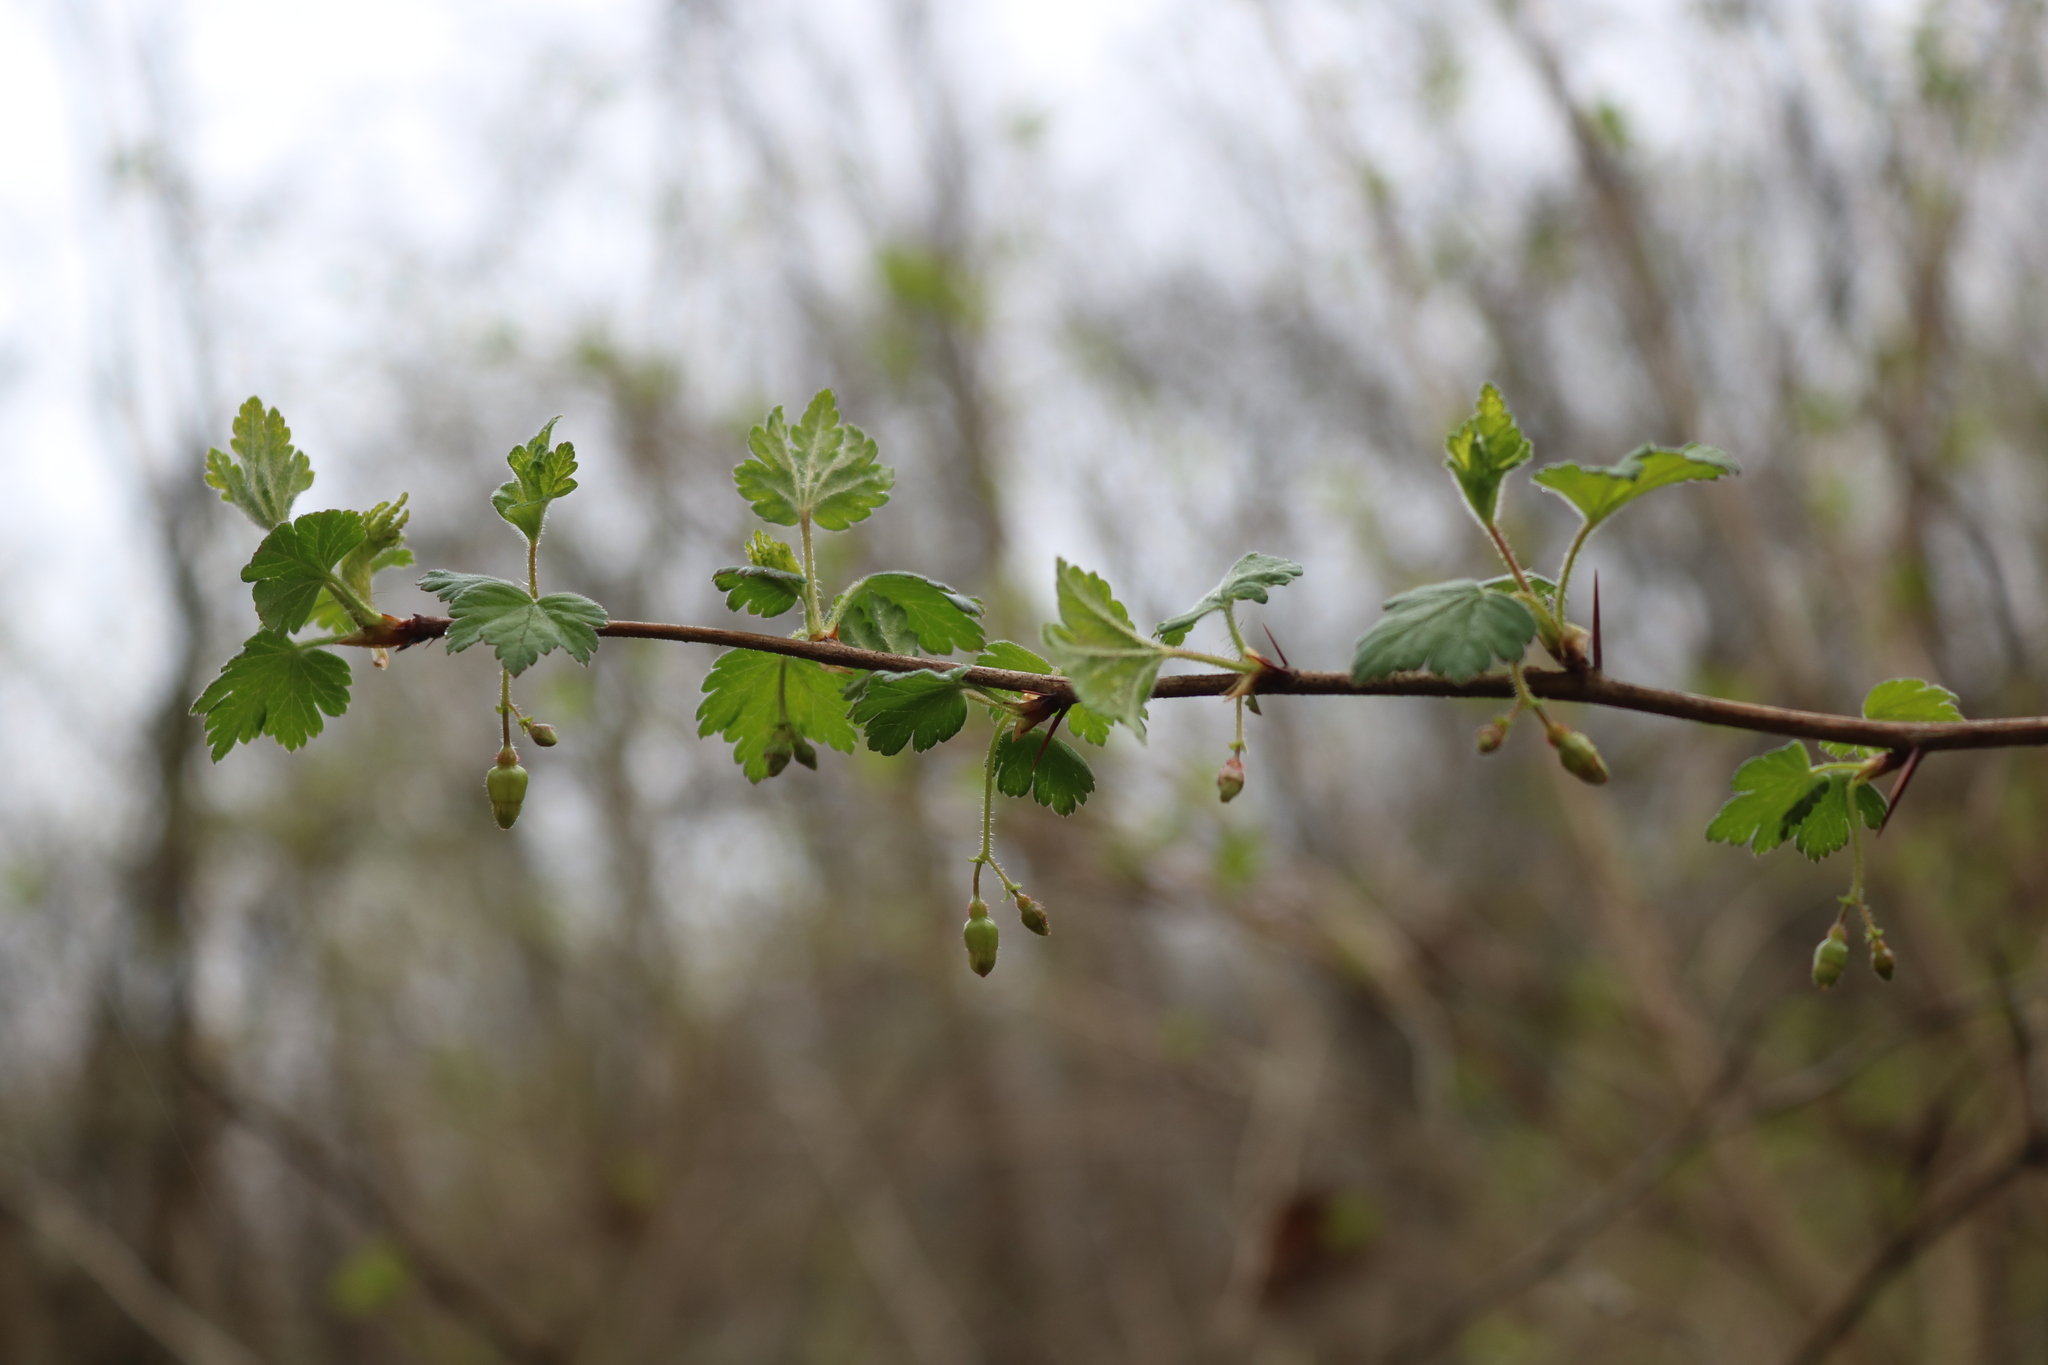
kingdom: Plantae
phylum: Tracheophyta
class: Magnoliopsida
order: Saxifragales
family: Grossulariaceae
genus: Ribes
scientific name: Ribes cynosbati
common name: American gooseberry
